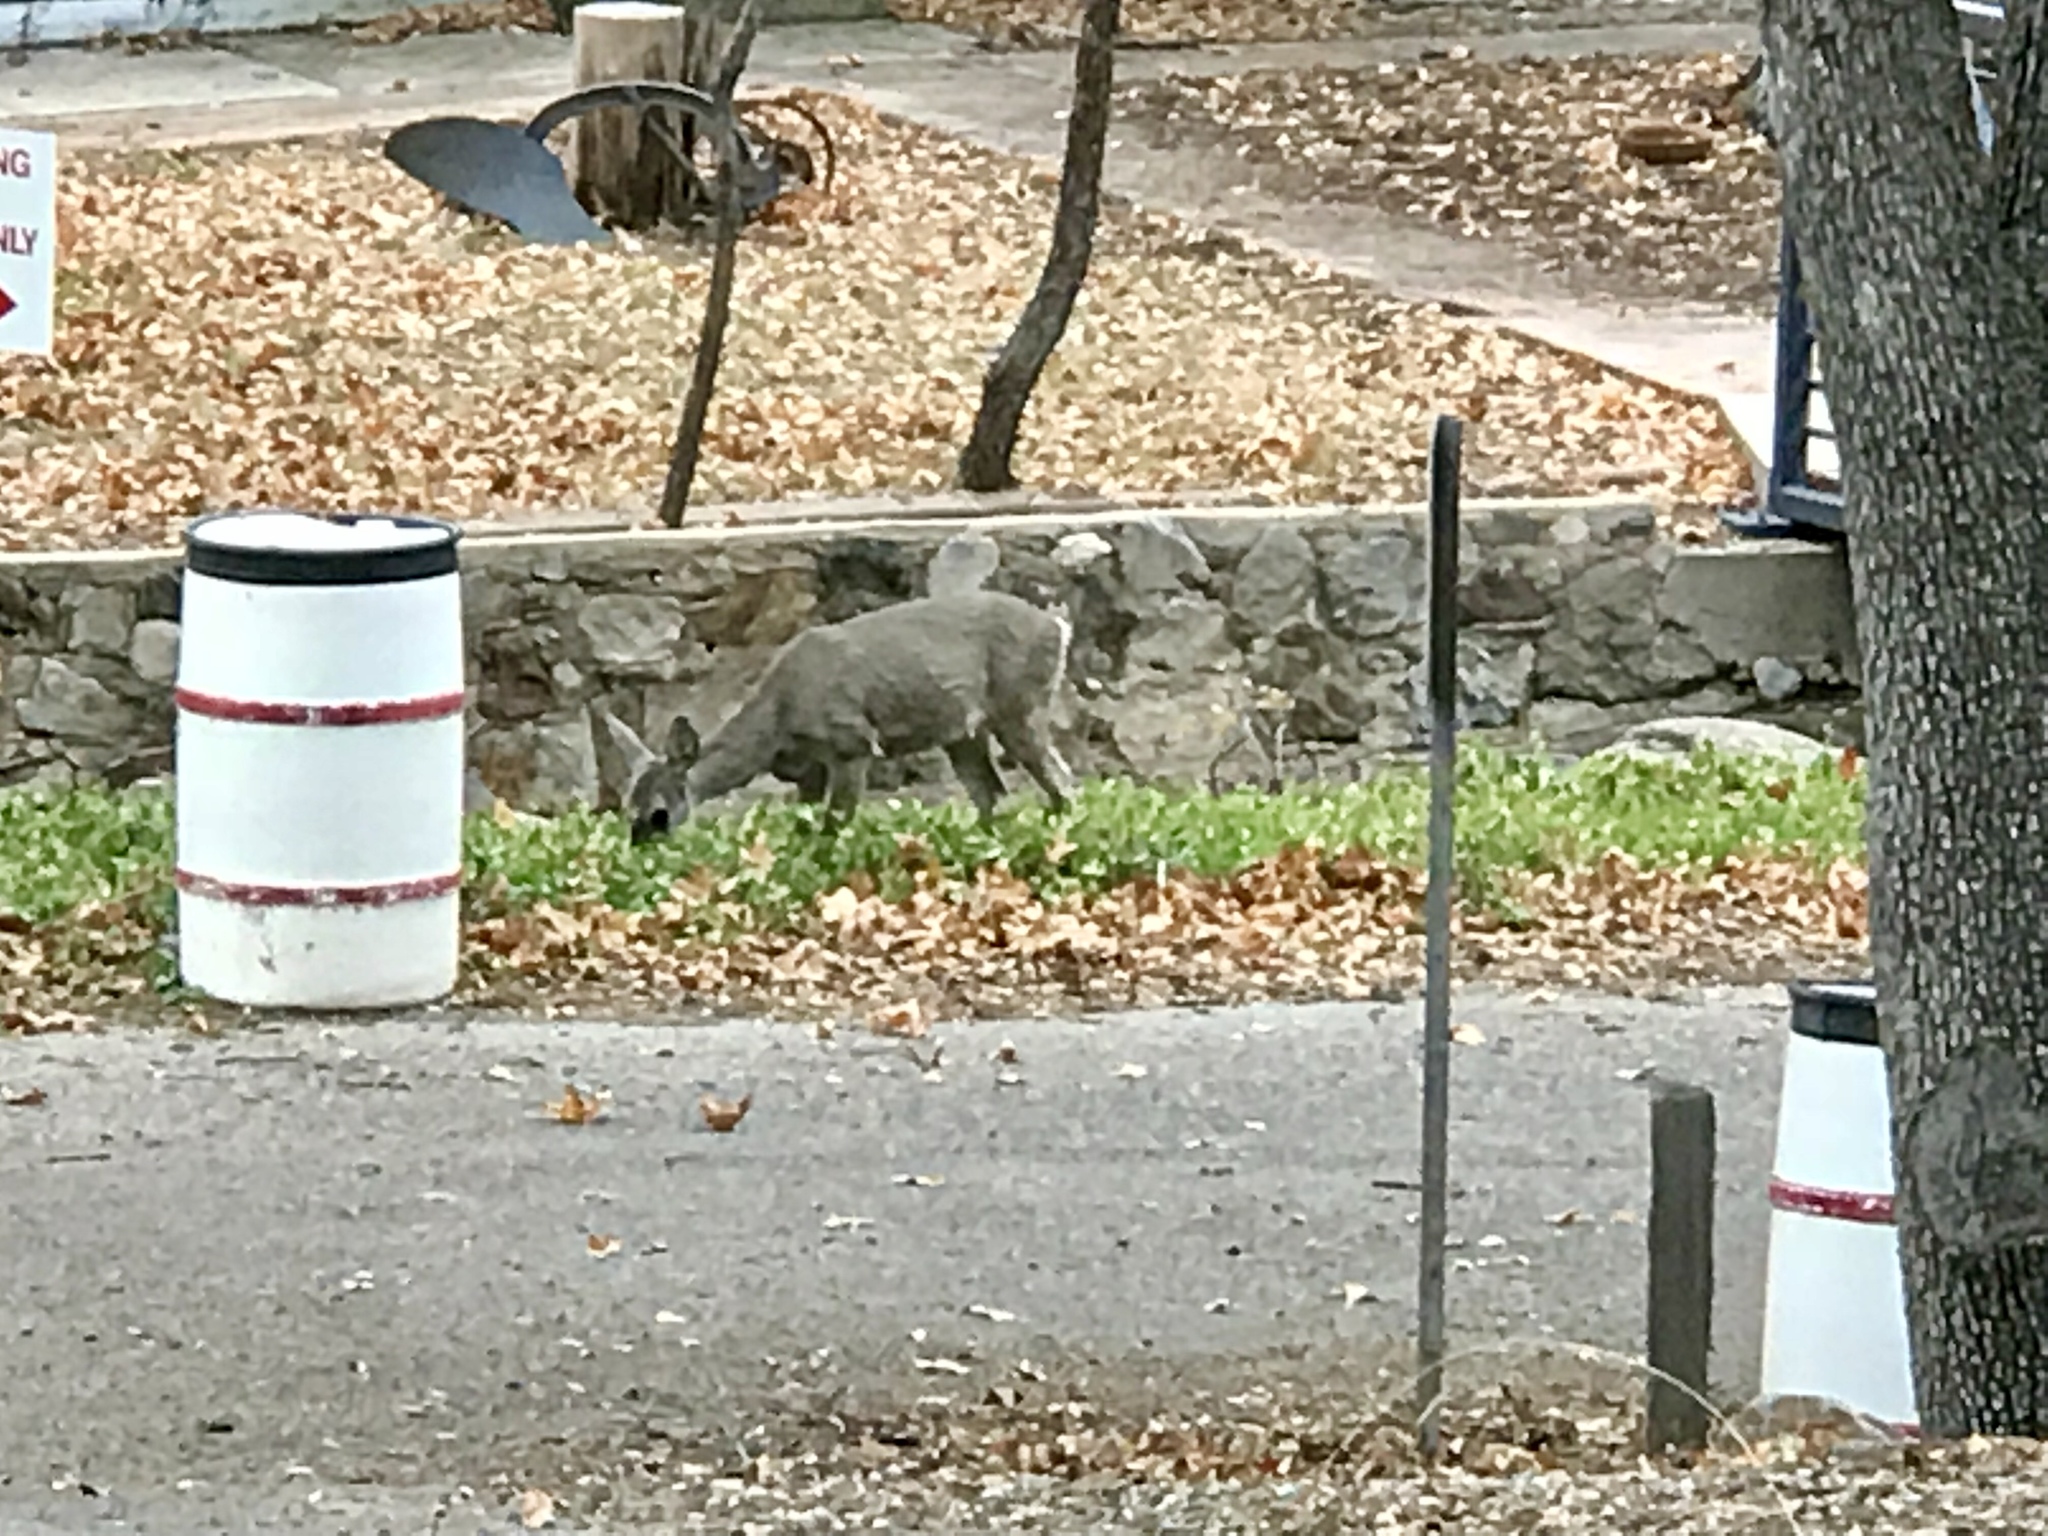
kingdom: Animalia
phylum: Chordata
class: Mammalia
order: Artiodactyla
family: Cervidae
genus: Odocoileus
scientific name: Odocoileus virginianus
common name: White-tailed deer
